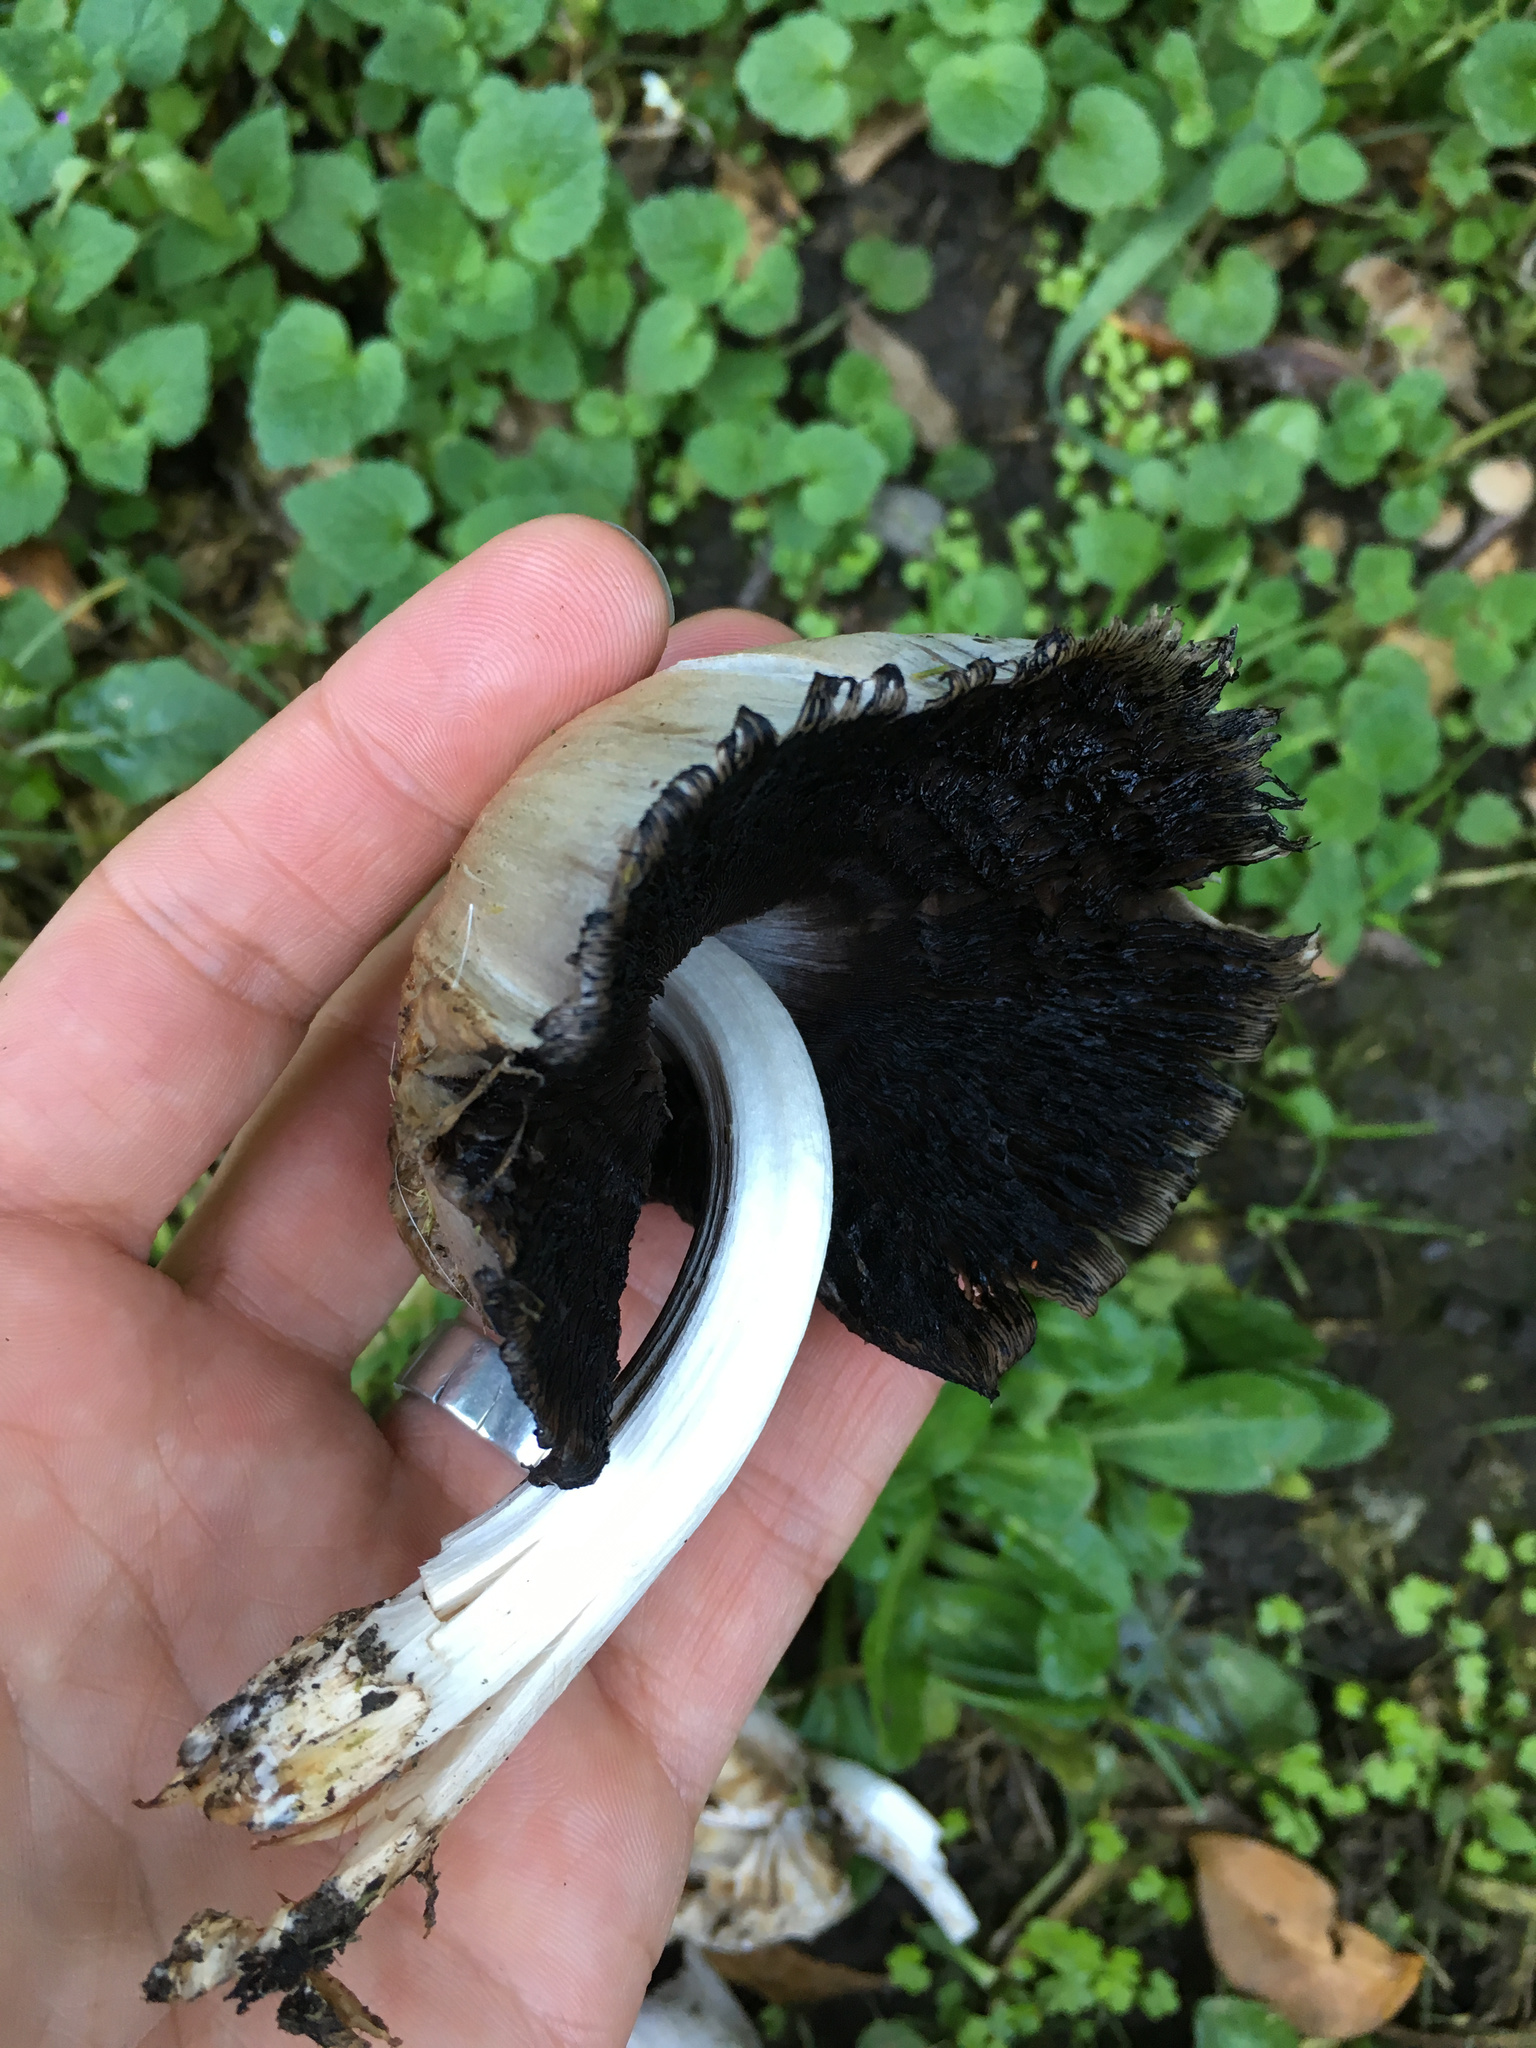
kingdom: Fungi
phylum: Basidiomycota
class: Agaricomycetes
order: Agaricales
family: Psathyrellaceae
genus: Coprinopsis
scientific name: Coprinopsis atramentaria
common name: Common ink-cap
